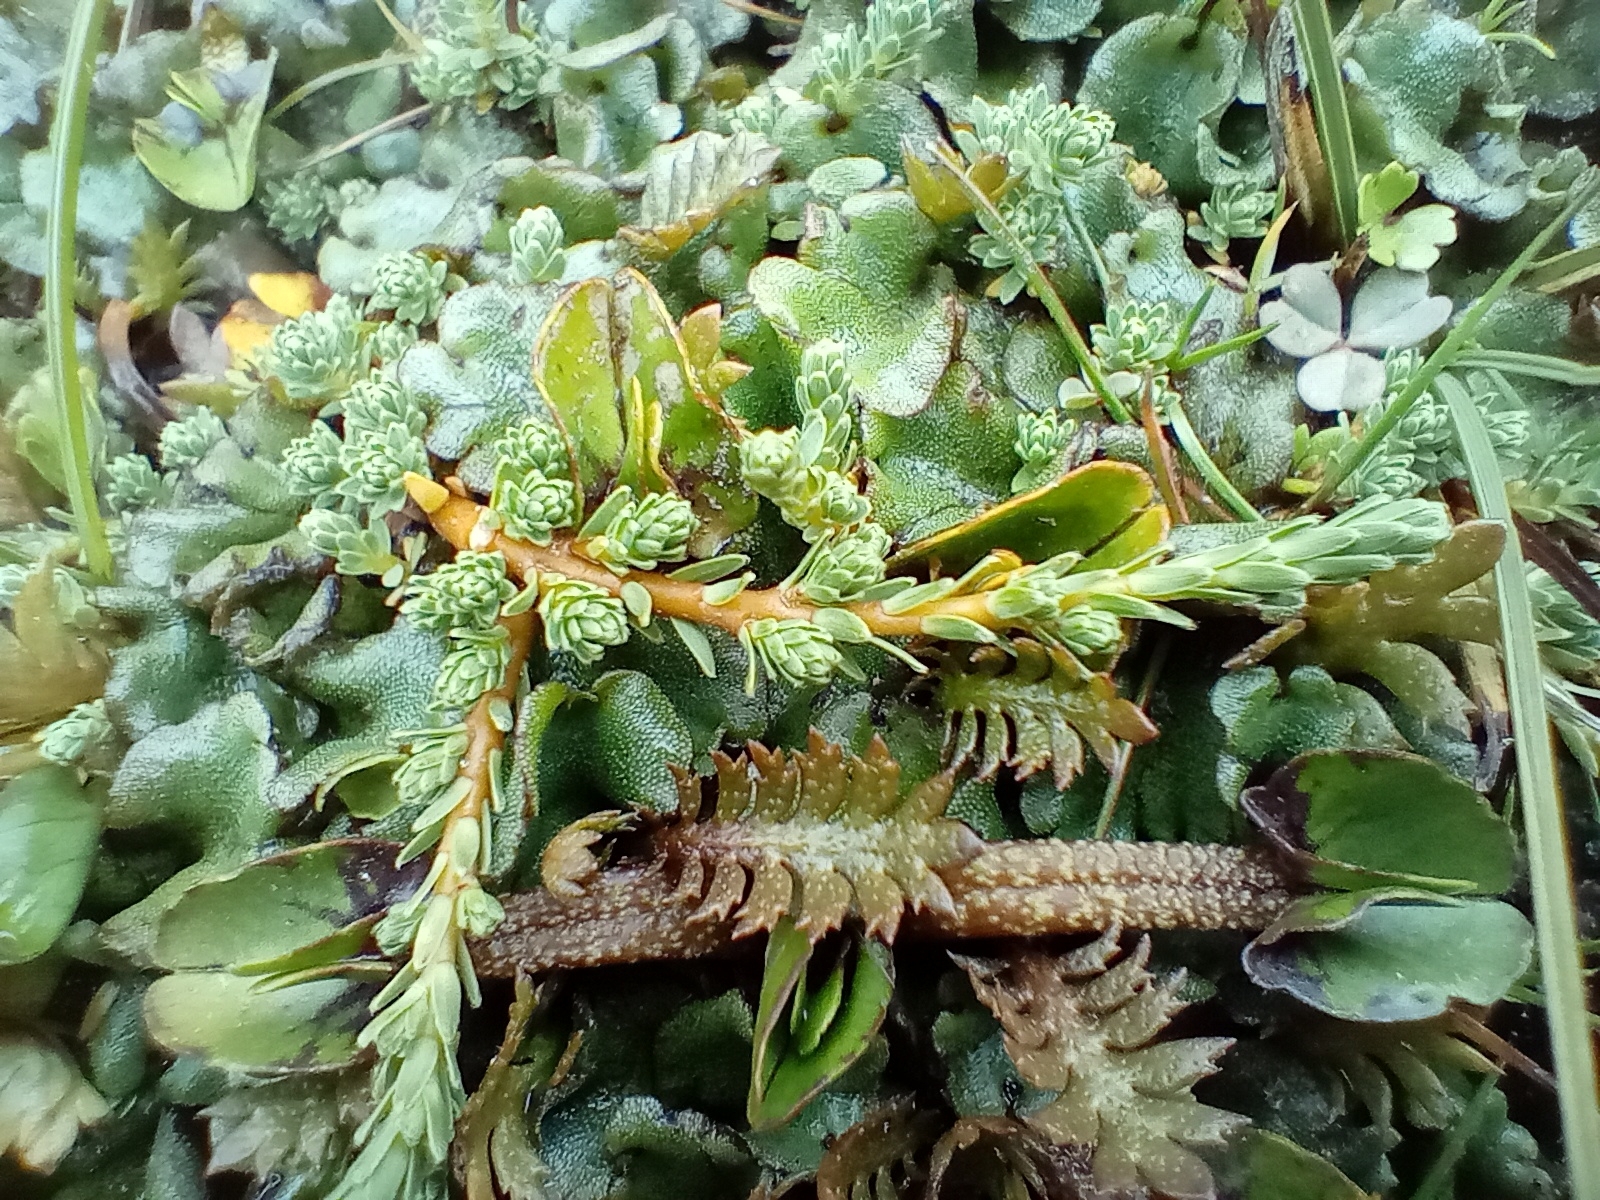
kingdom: Plantae
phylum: Tracheophyta
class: Magnoliopsida
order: Malvales
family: Thymelaeaceae
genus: Kelleria
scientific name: Kelleria paludosa
